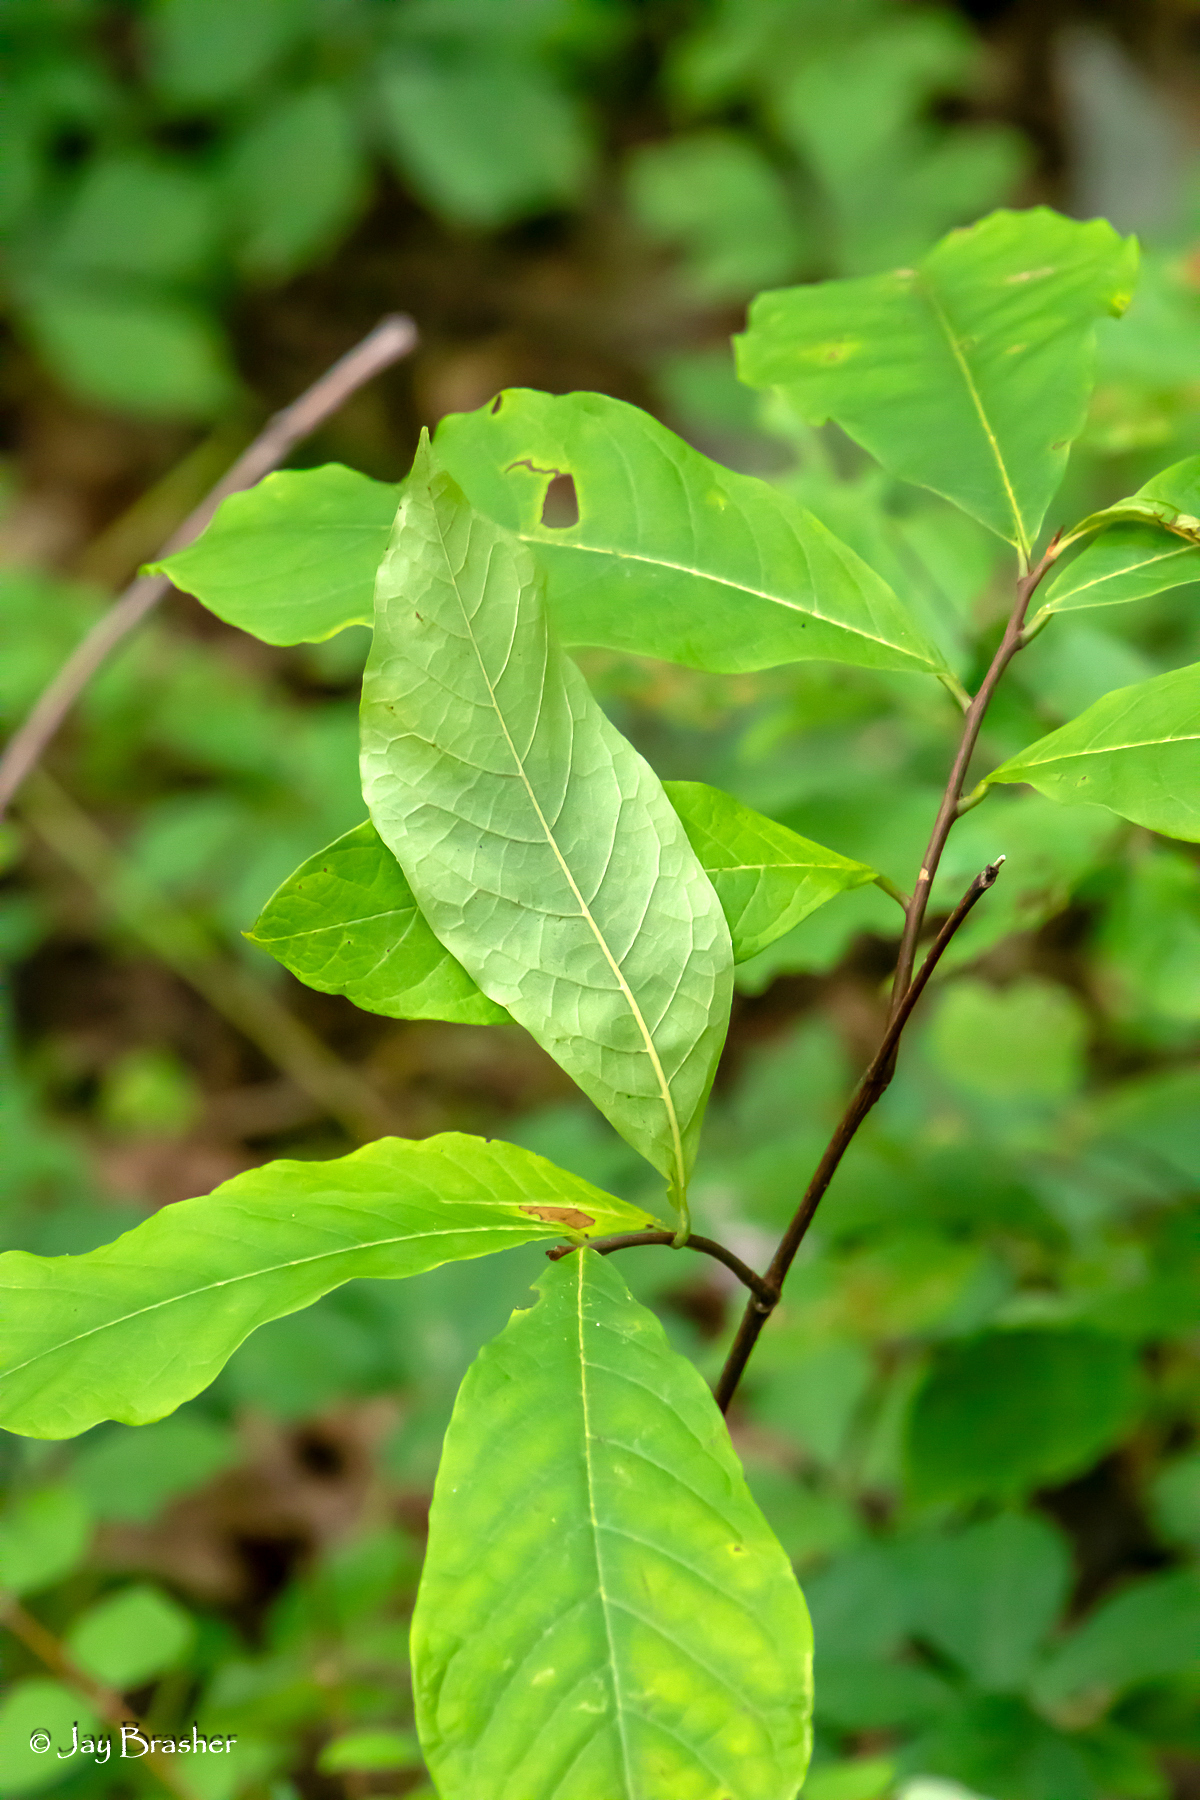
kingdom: Plantae
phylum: Tracheophyta
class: Magnoliopsida
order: Magnoliales
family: Annonaceae
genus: Asimina
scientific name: Asimina parviflora
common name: Dwarf pawpaw
